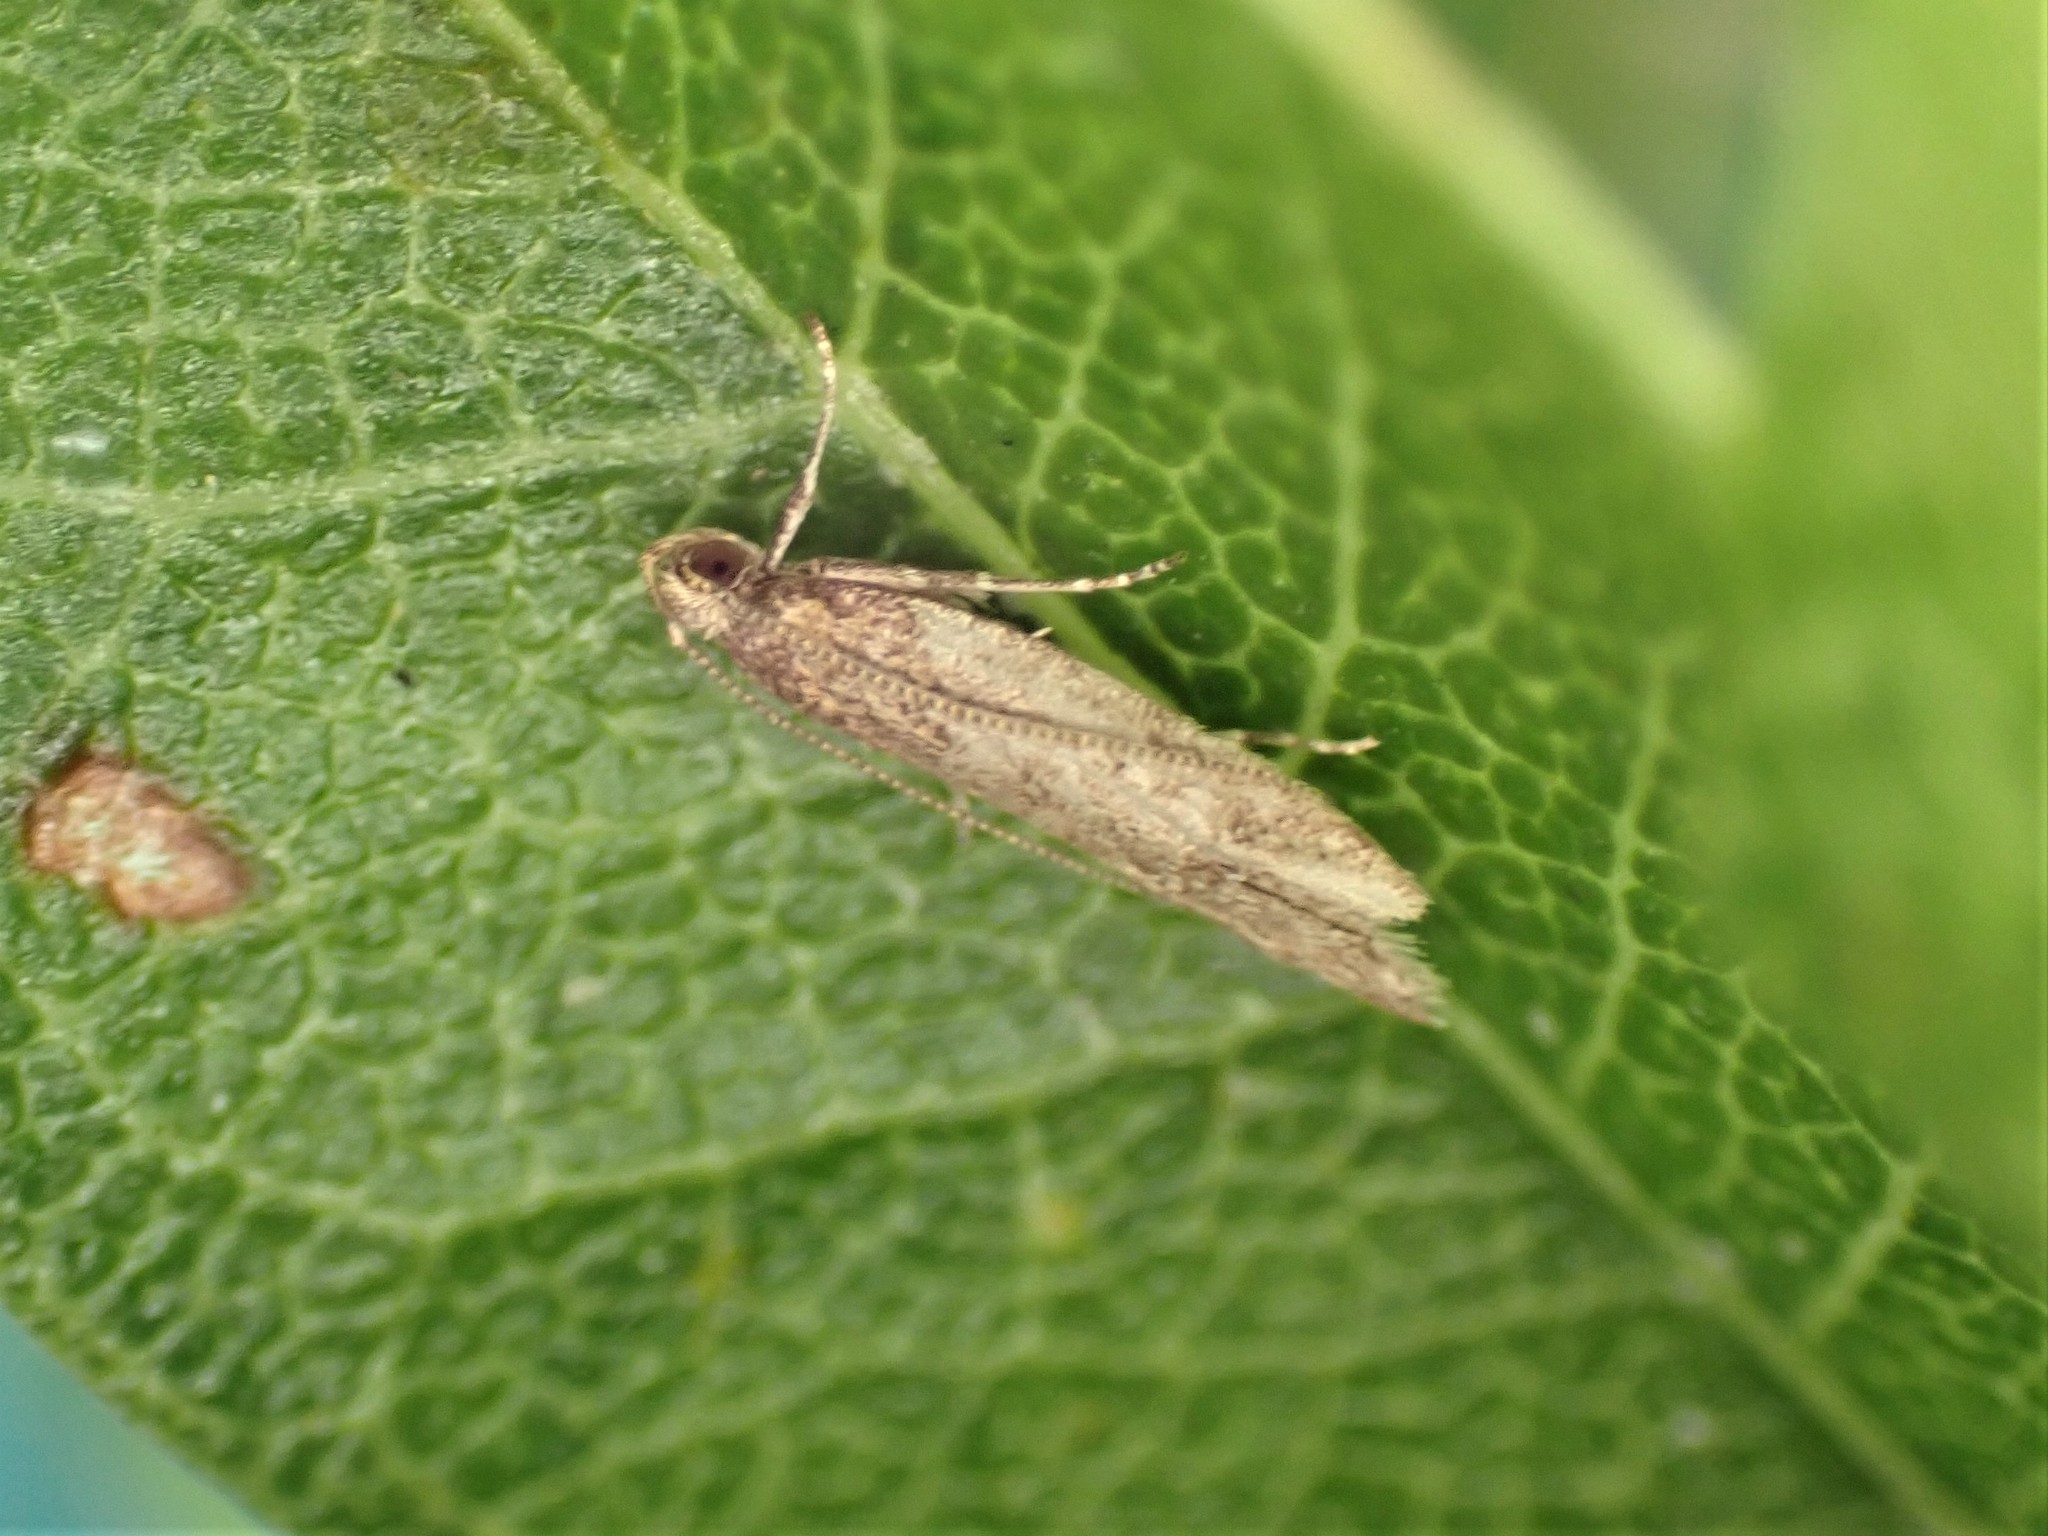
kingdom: Animalia
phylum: Arthropoda
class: Insecta
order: Lepidoptera
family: Oecophoridae
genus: Gymnobathra
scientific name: Gymnobathra tholodella
